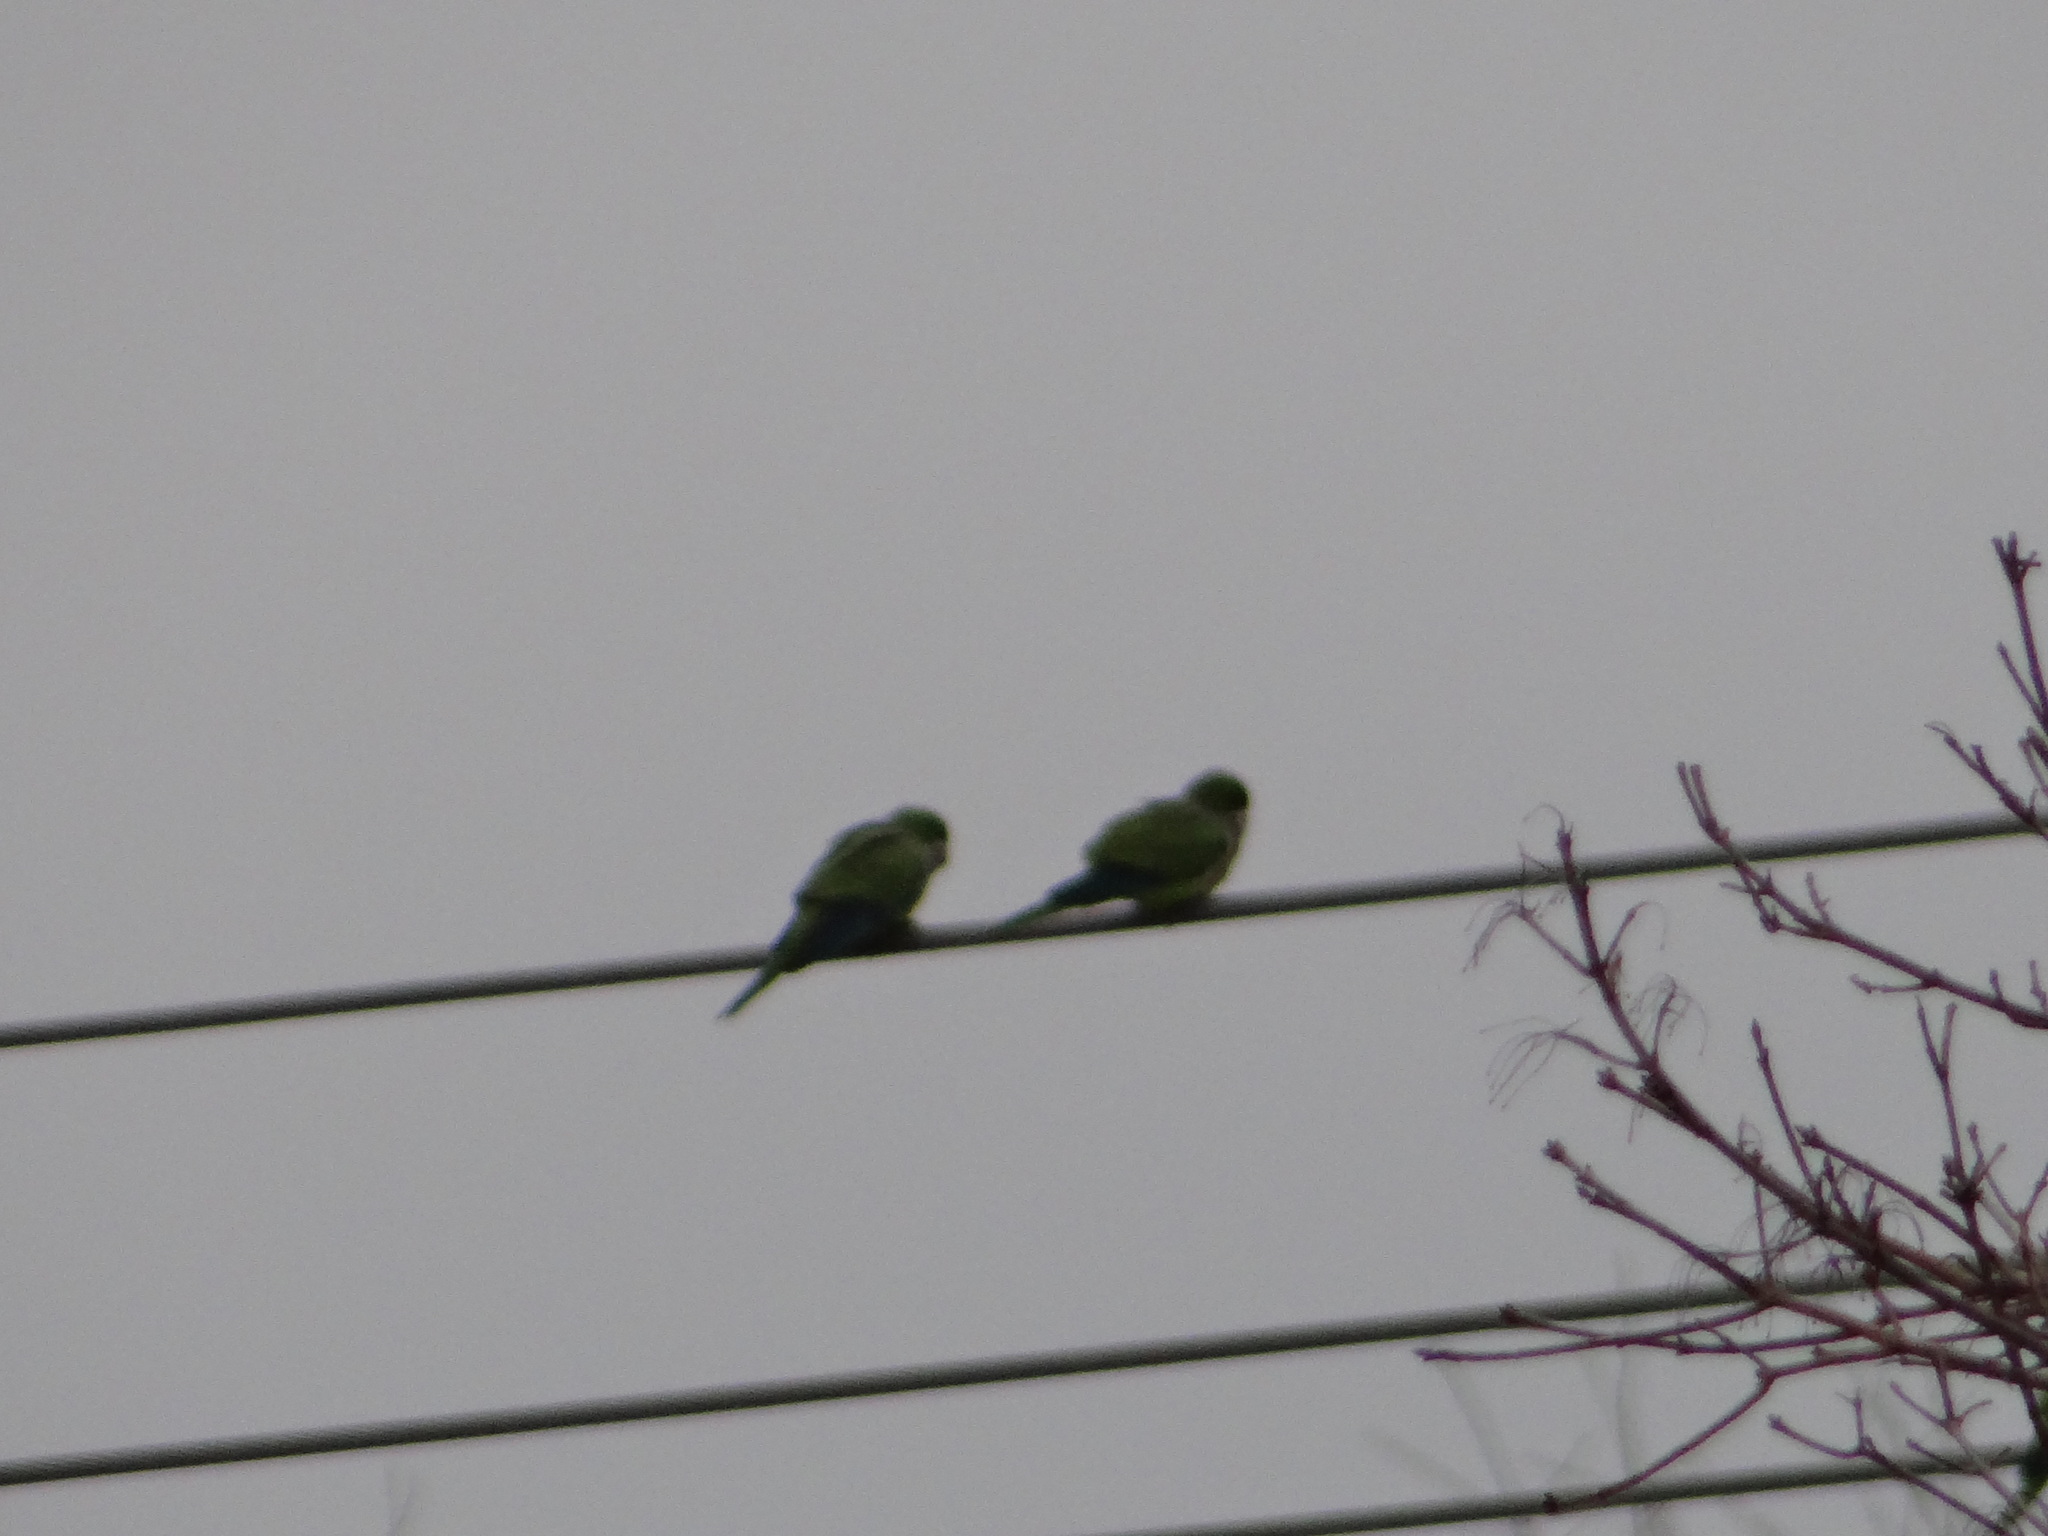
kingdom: Animalia
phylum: Chordata
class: Aves
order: Psittaciformes
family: Psittacidae
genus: Myiopsitta
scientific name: Myiopsitta monachus
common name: Monk parakeet
